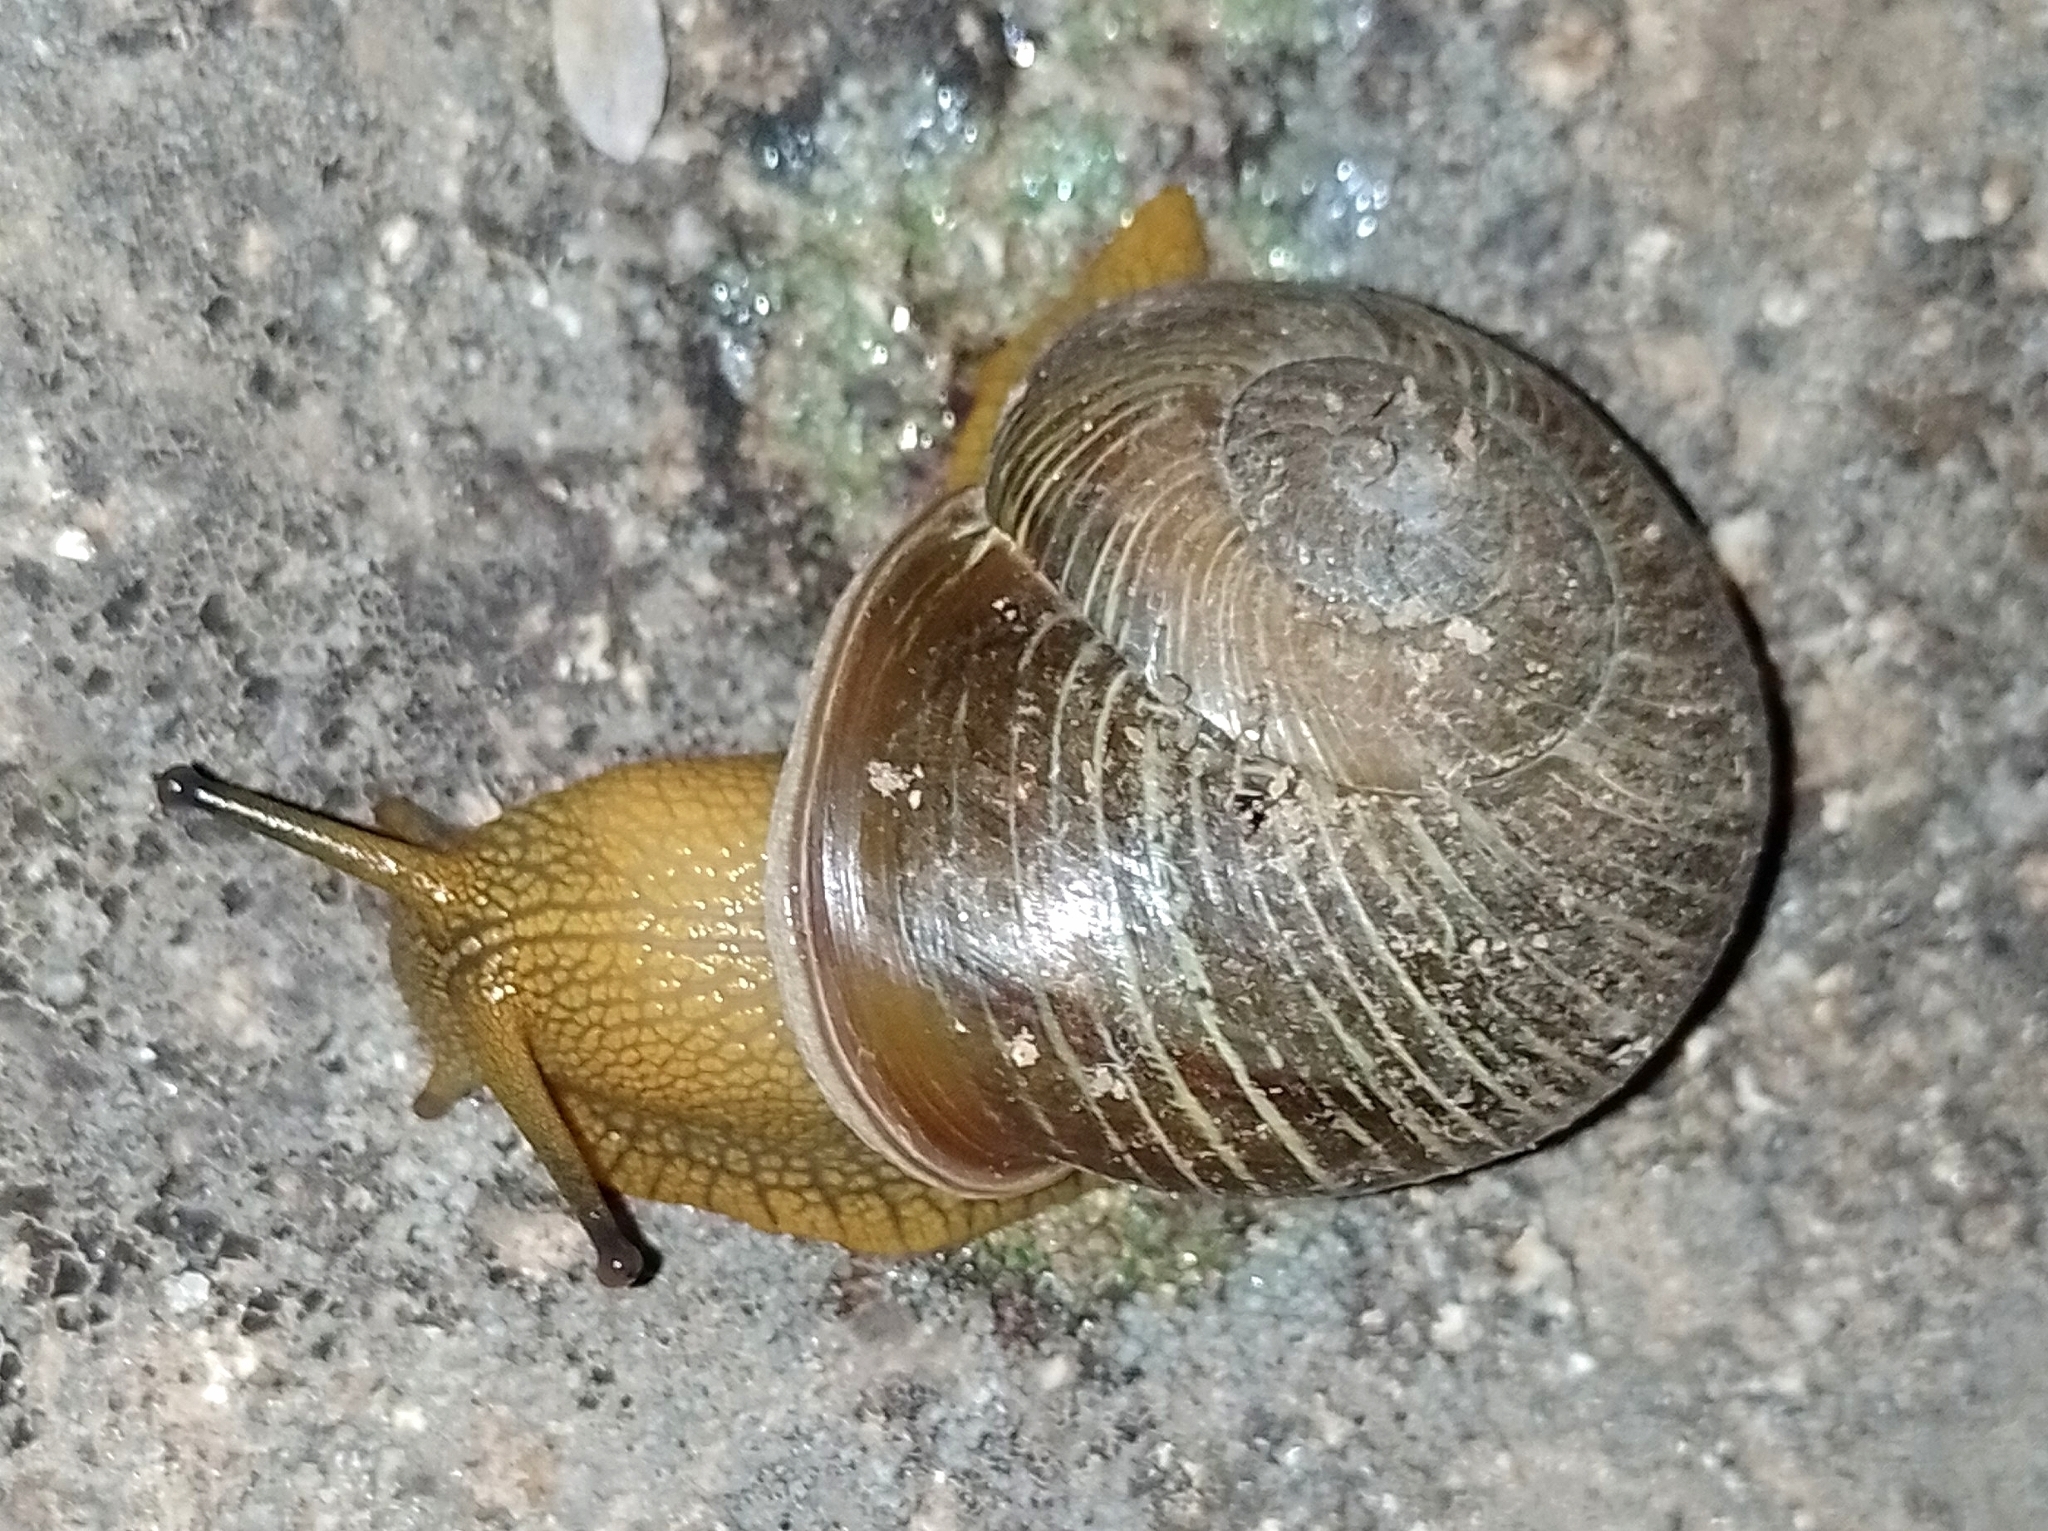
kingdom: Animalia
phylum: Mollusca
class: Gastropoda
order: Stylommatophora
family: Epiphragmophoridae
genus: Epiphragmophora
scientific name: Epiphragmophora puntana
